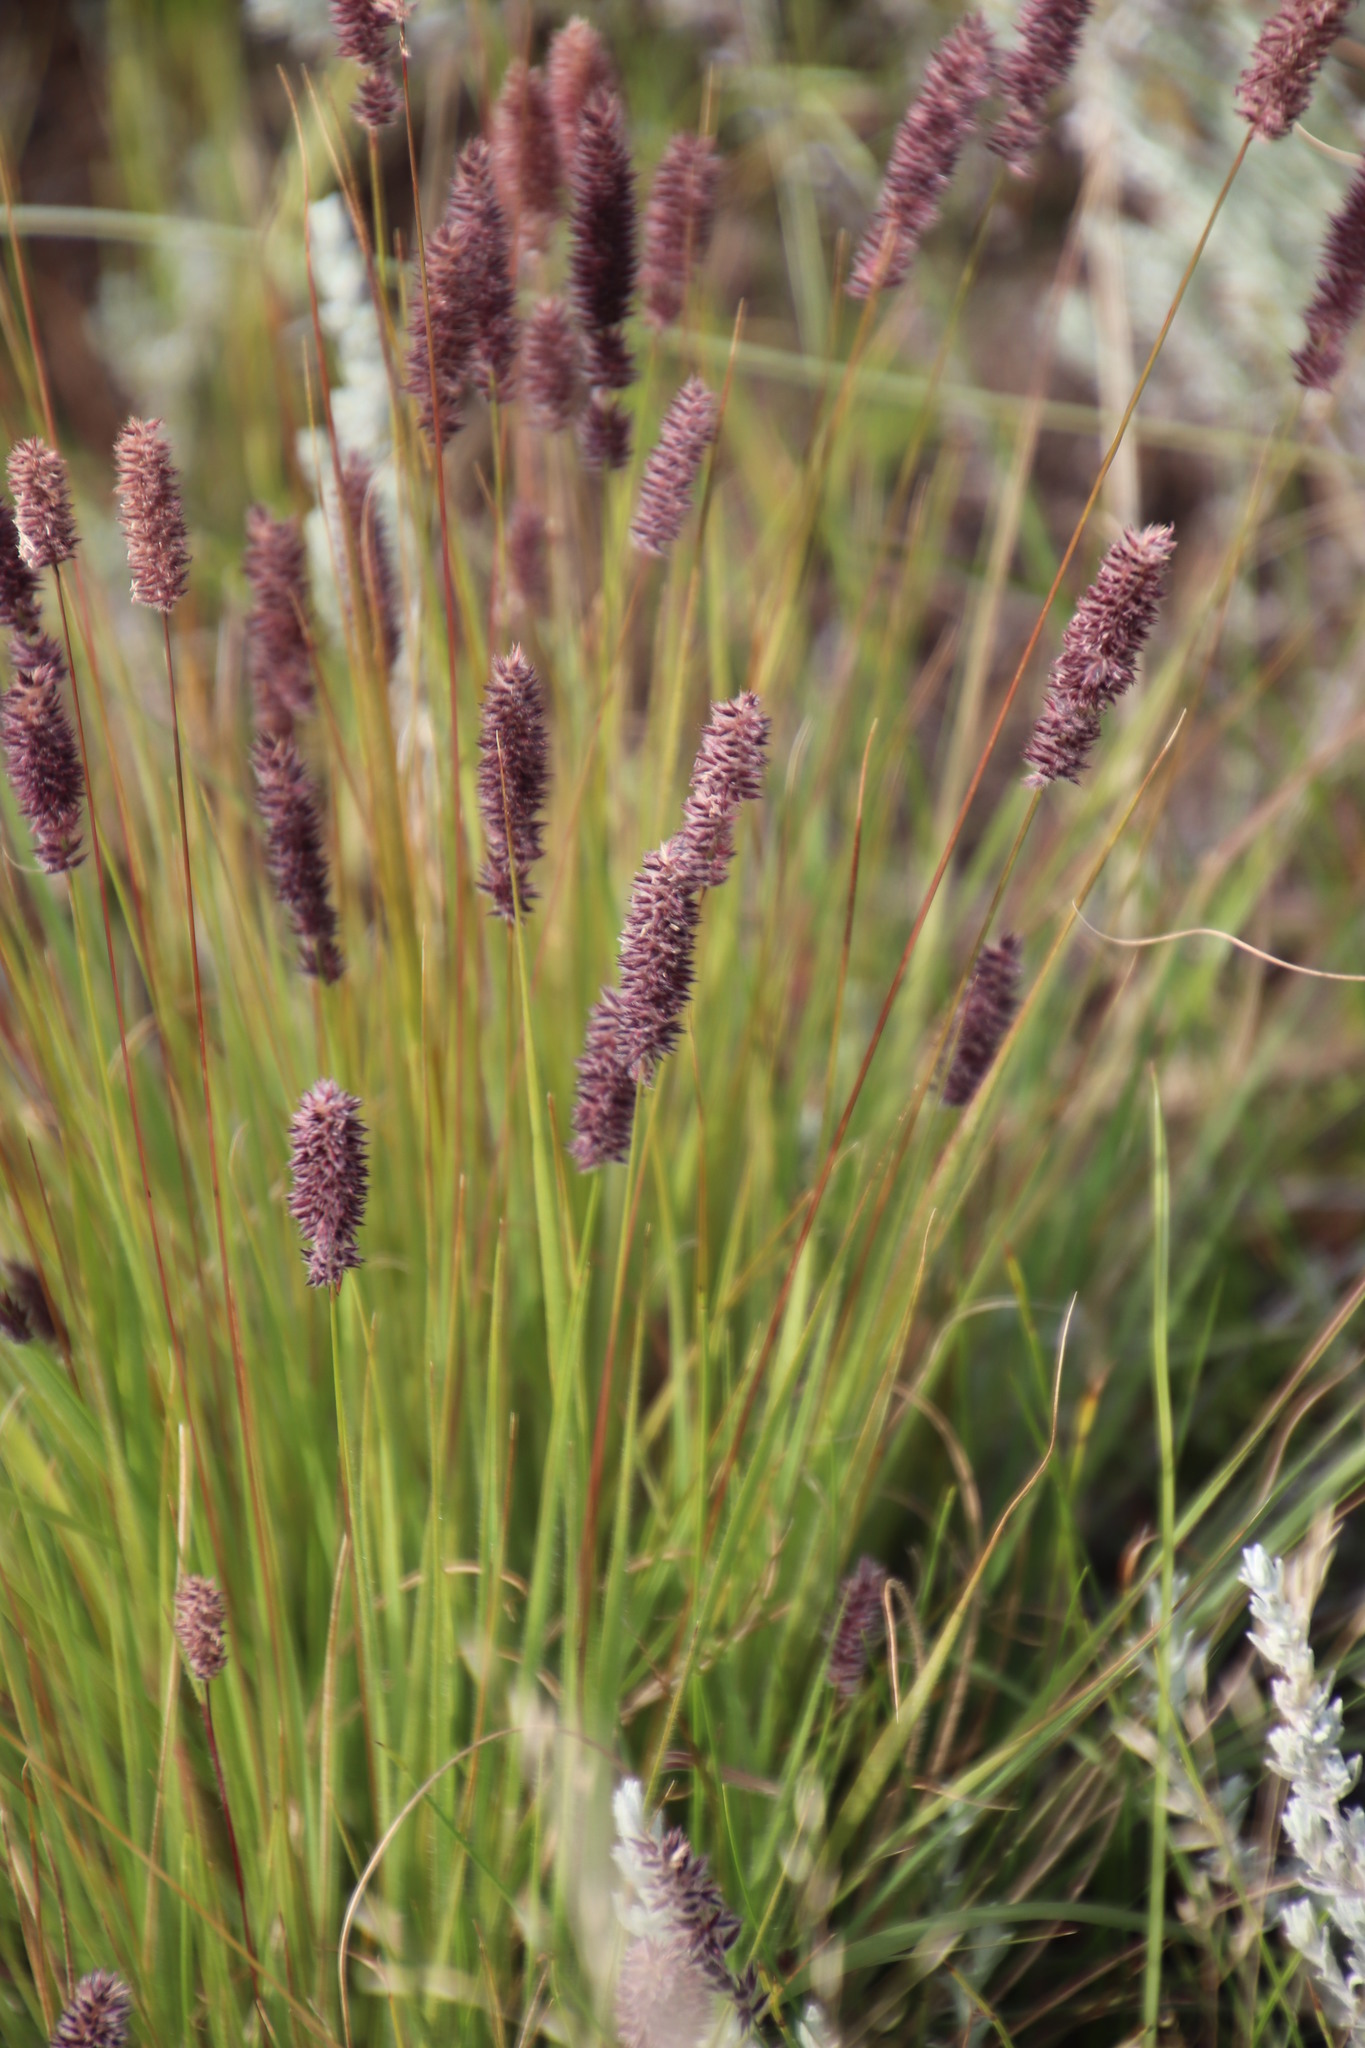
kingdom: Plantae
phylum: Tracheophyta
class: Liliopsida
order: Poales
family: Poaceae
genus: Stiburus
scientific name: Stiburus alopecuroides
